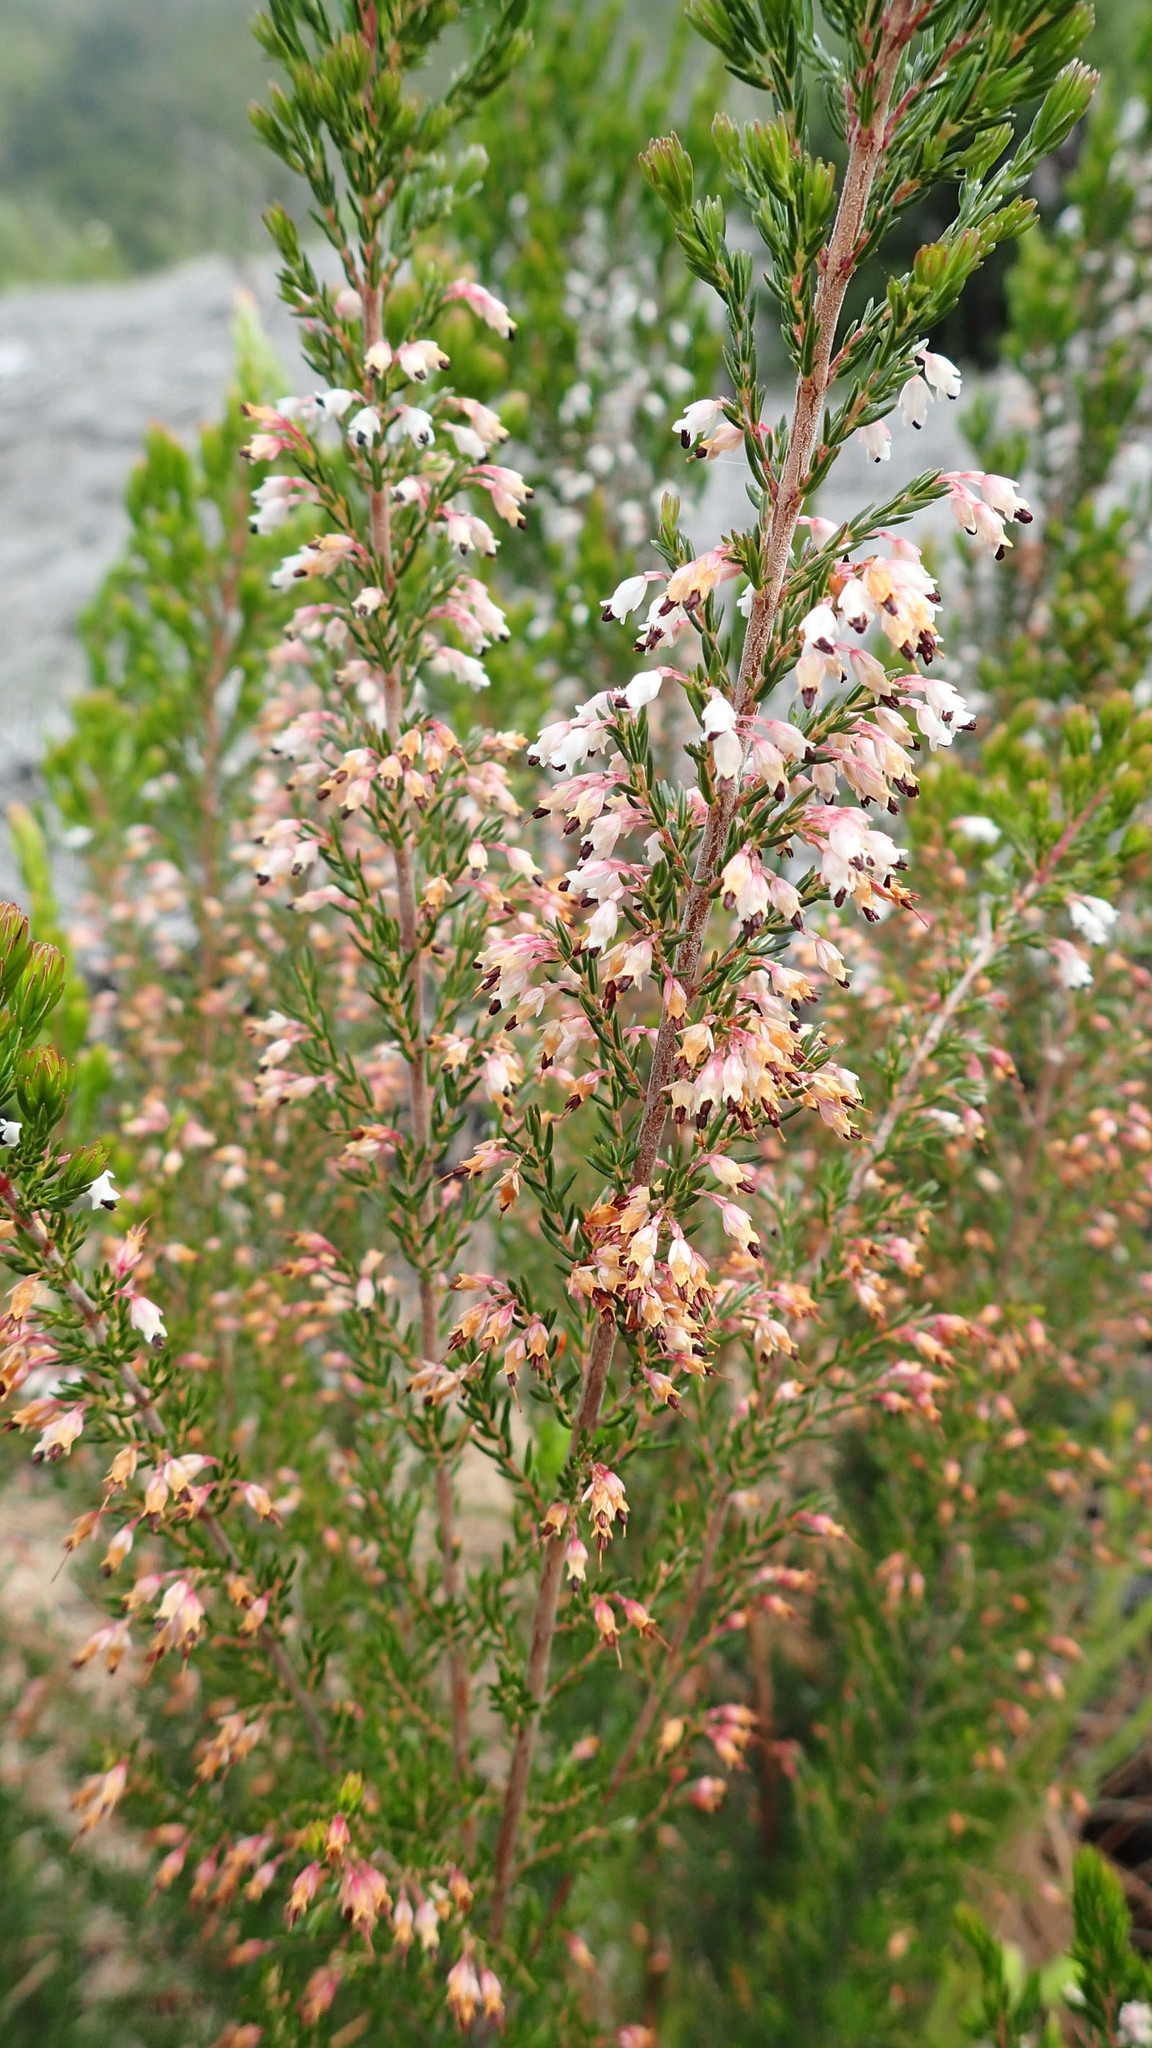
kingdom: Plantae
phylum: Tracheophyta
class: Magnoliopsida
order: Ericales
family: Ericaceae
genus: Erica
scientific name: Erica fuscescens
